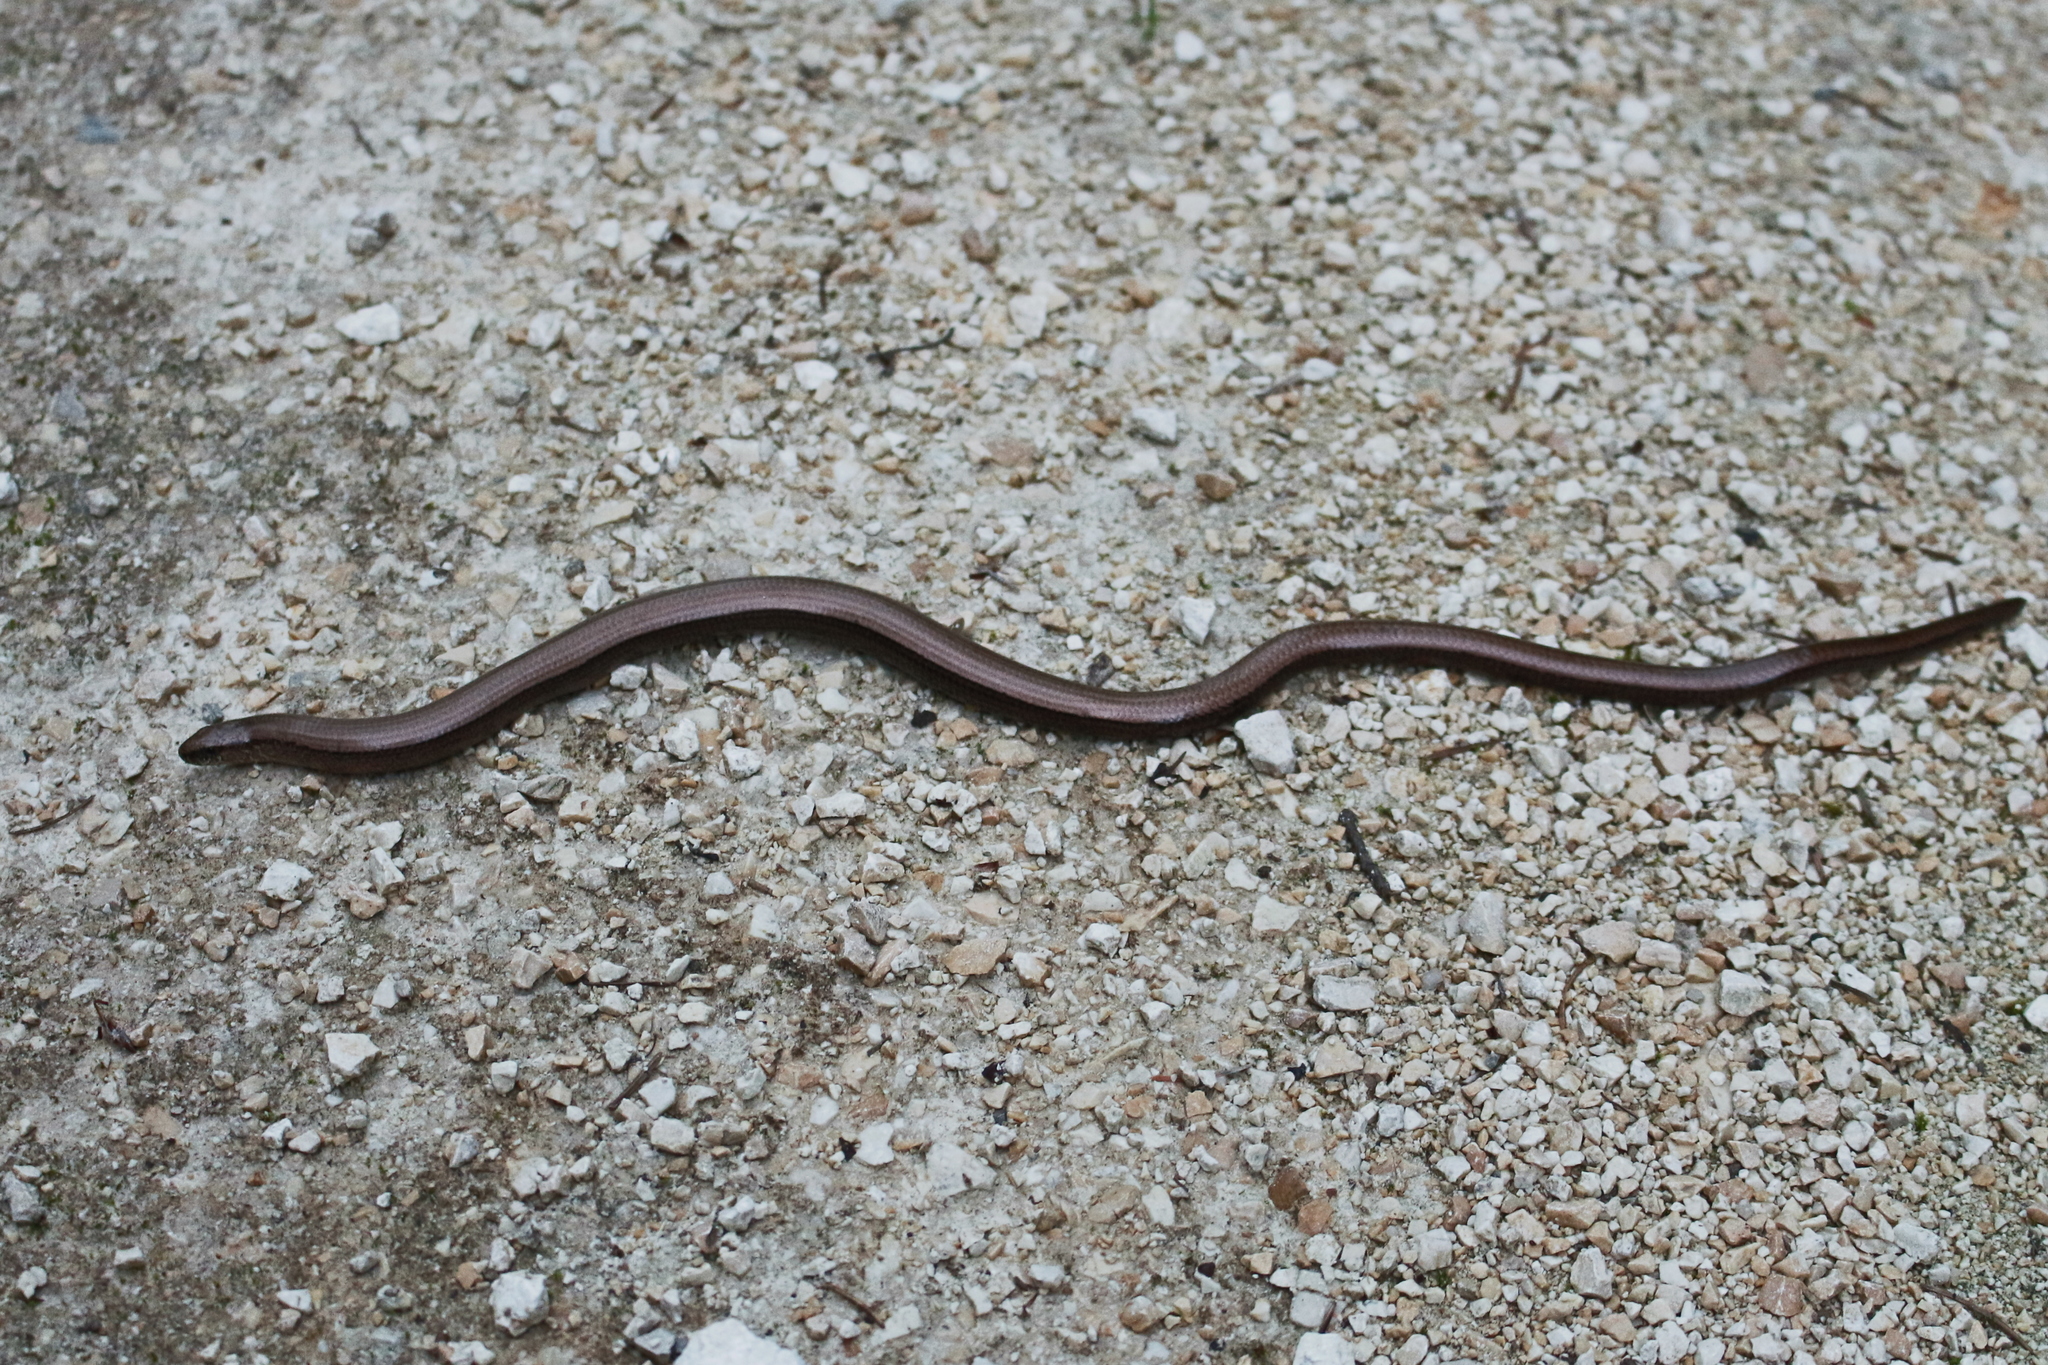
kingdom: Animalia
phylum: Chordata
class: Squamata
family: Anguidae
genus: Anguis
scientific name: Anguis fragilis
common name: Slow worm
